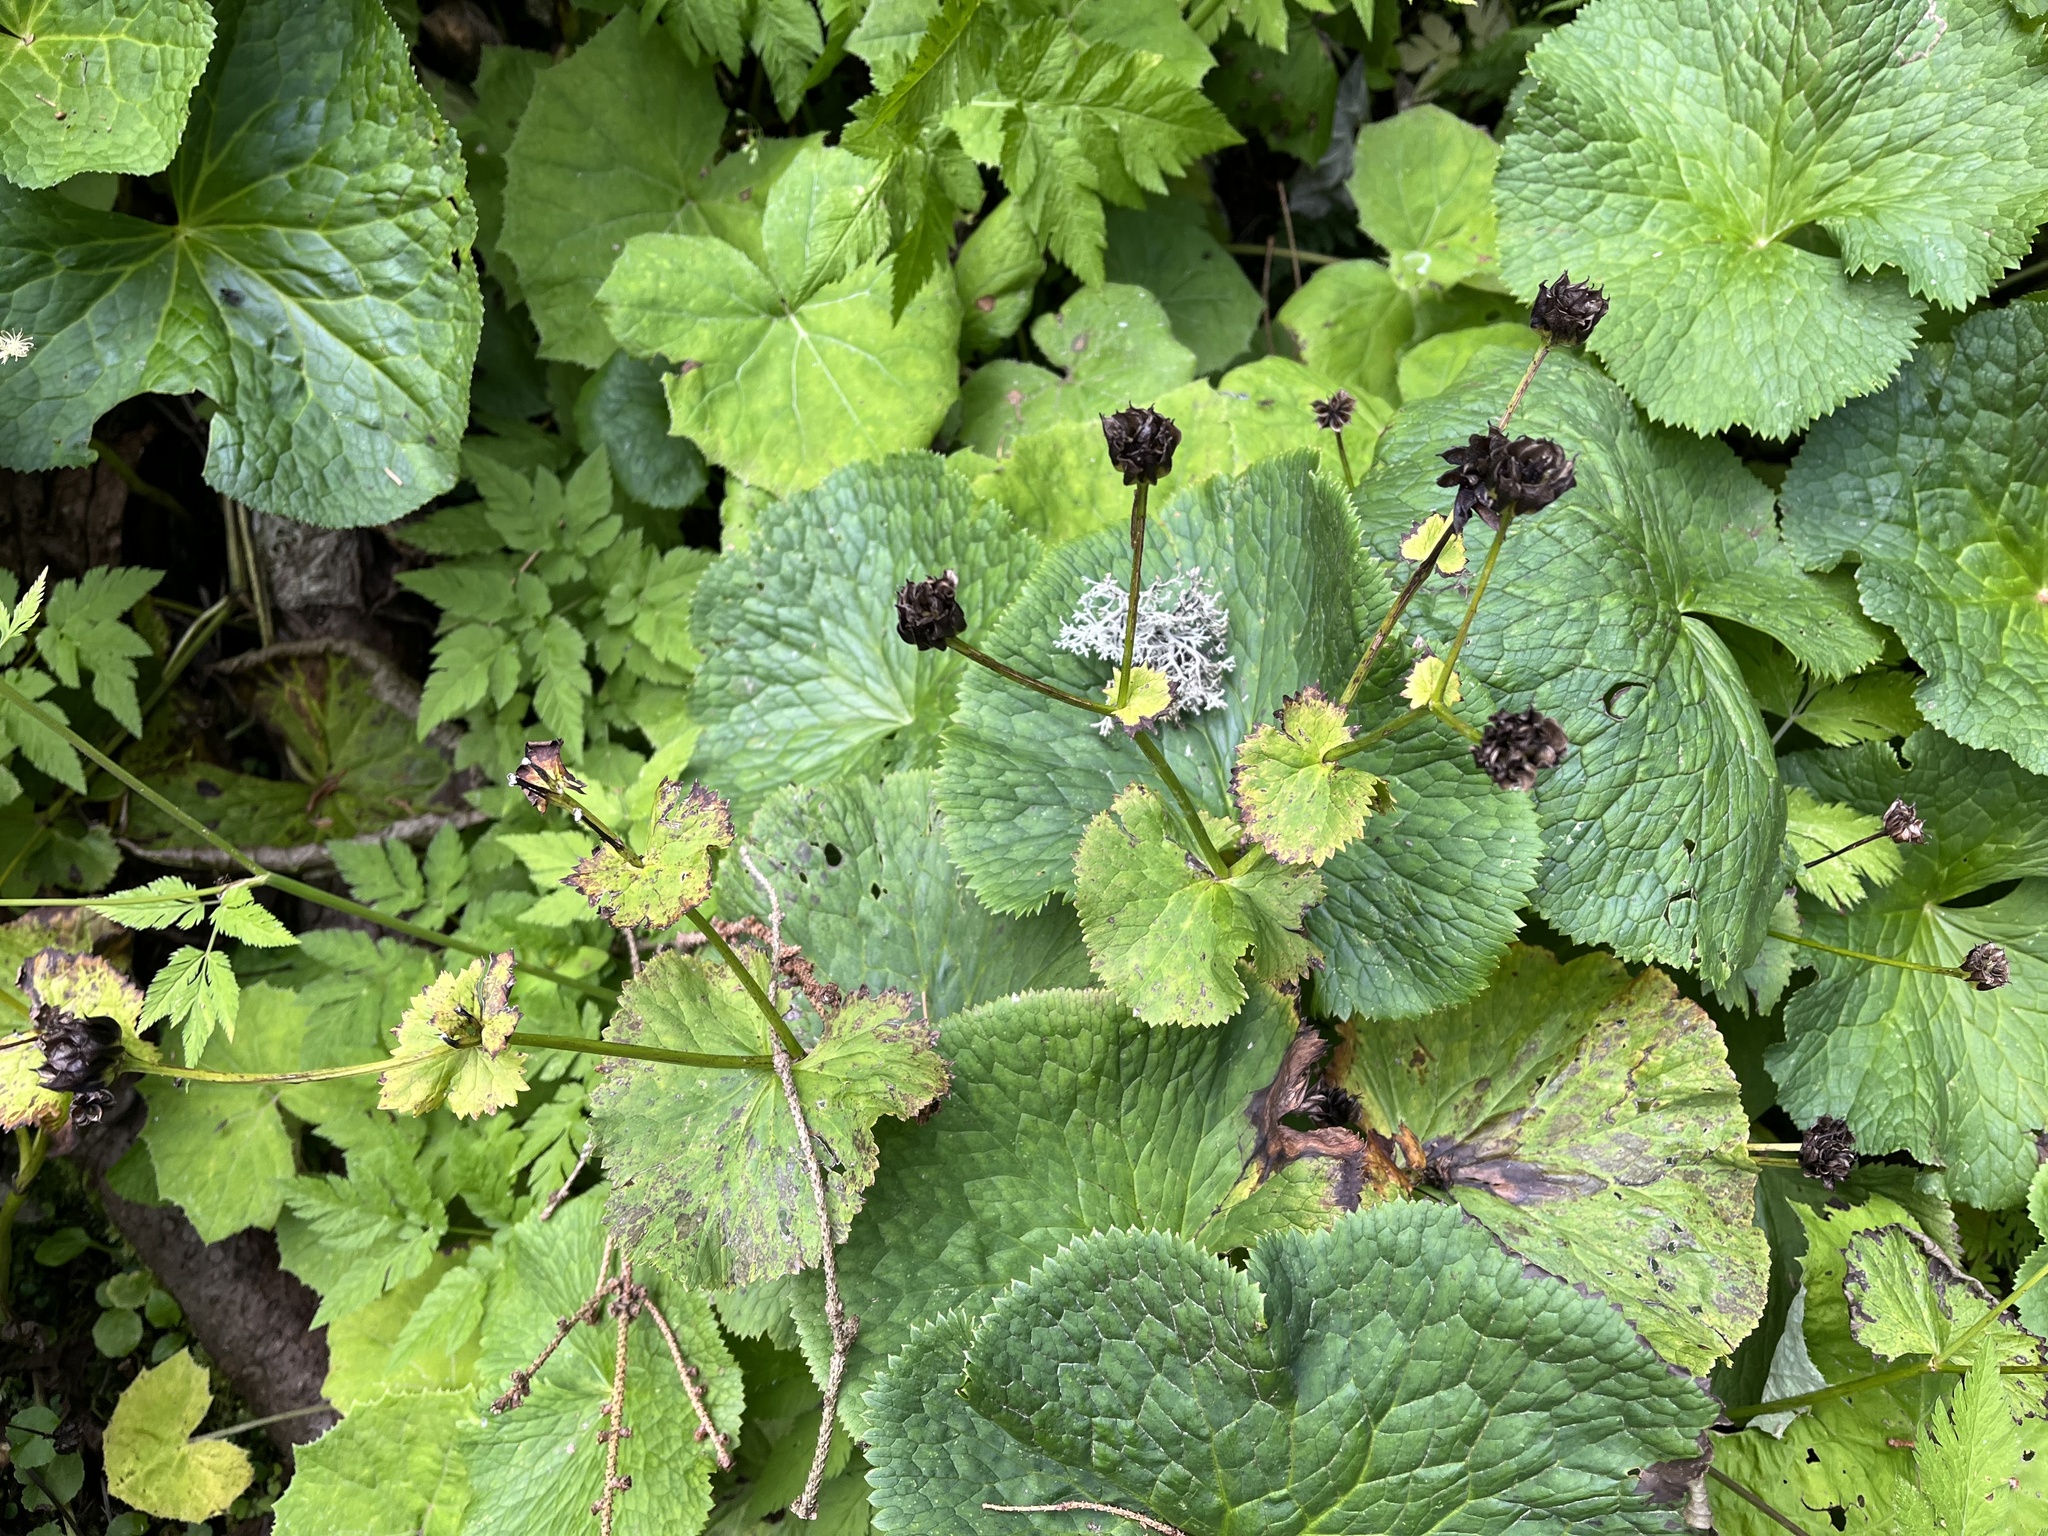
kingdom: Plantae
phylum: Tracheophyta
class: Magnoliopsida
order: Ranunculales
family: Ranunculaceae
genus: Caltha
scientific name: Caltha palustris
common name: Marsh marigold
